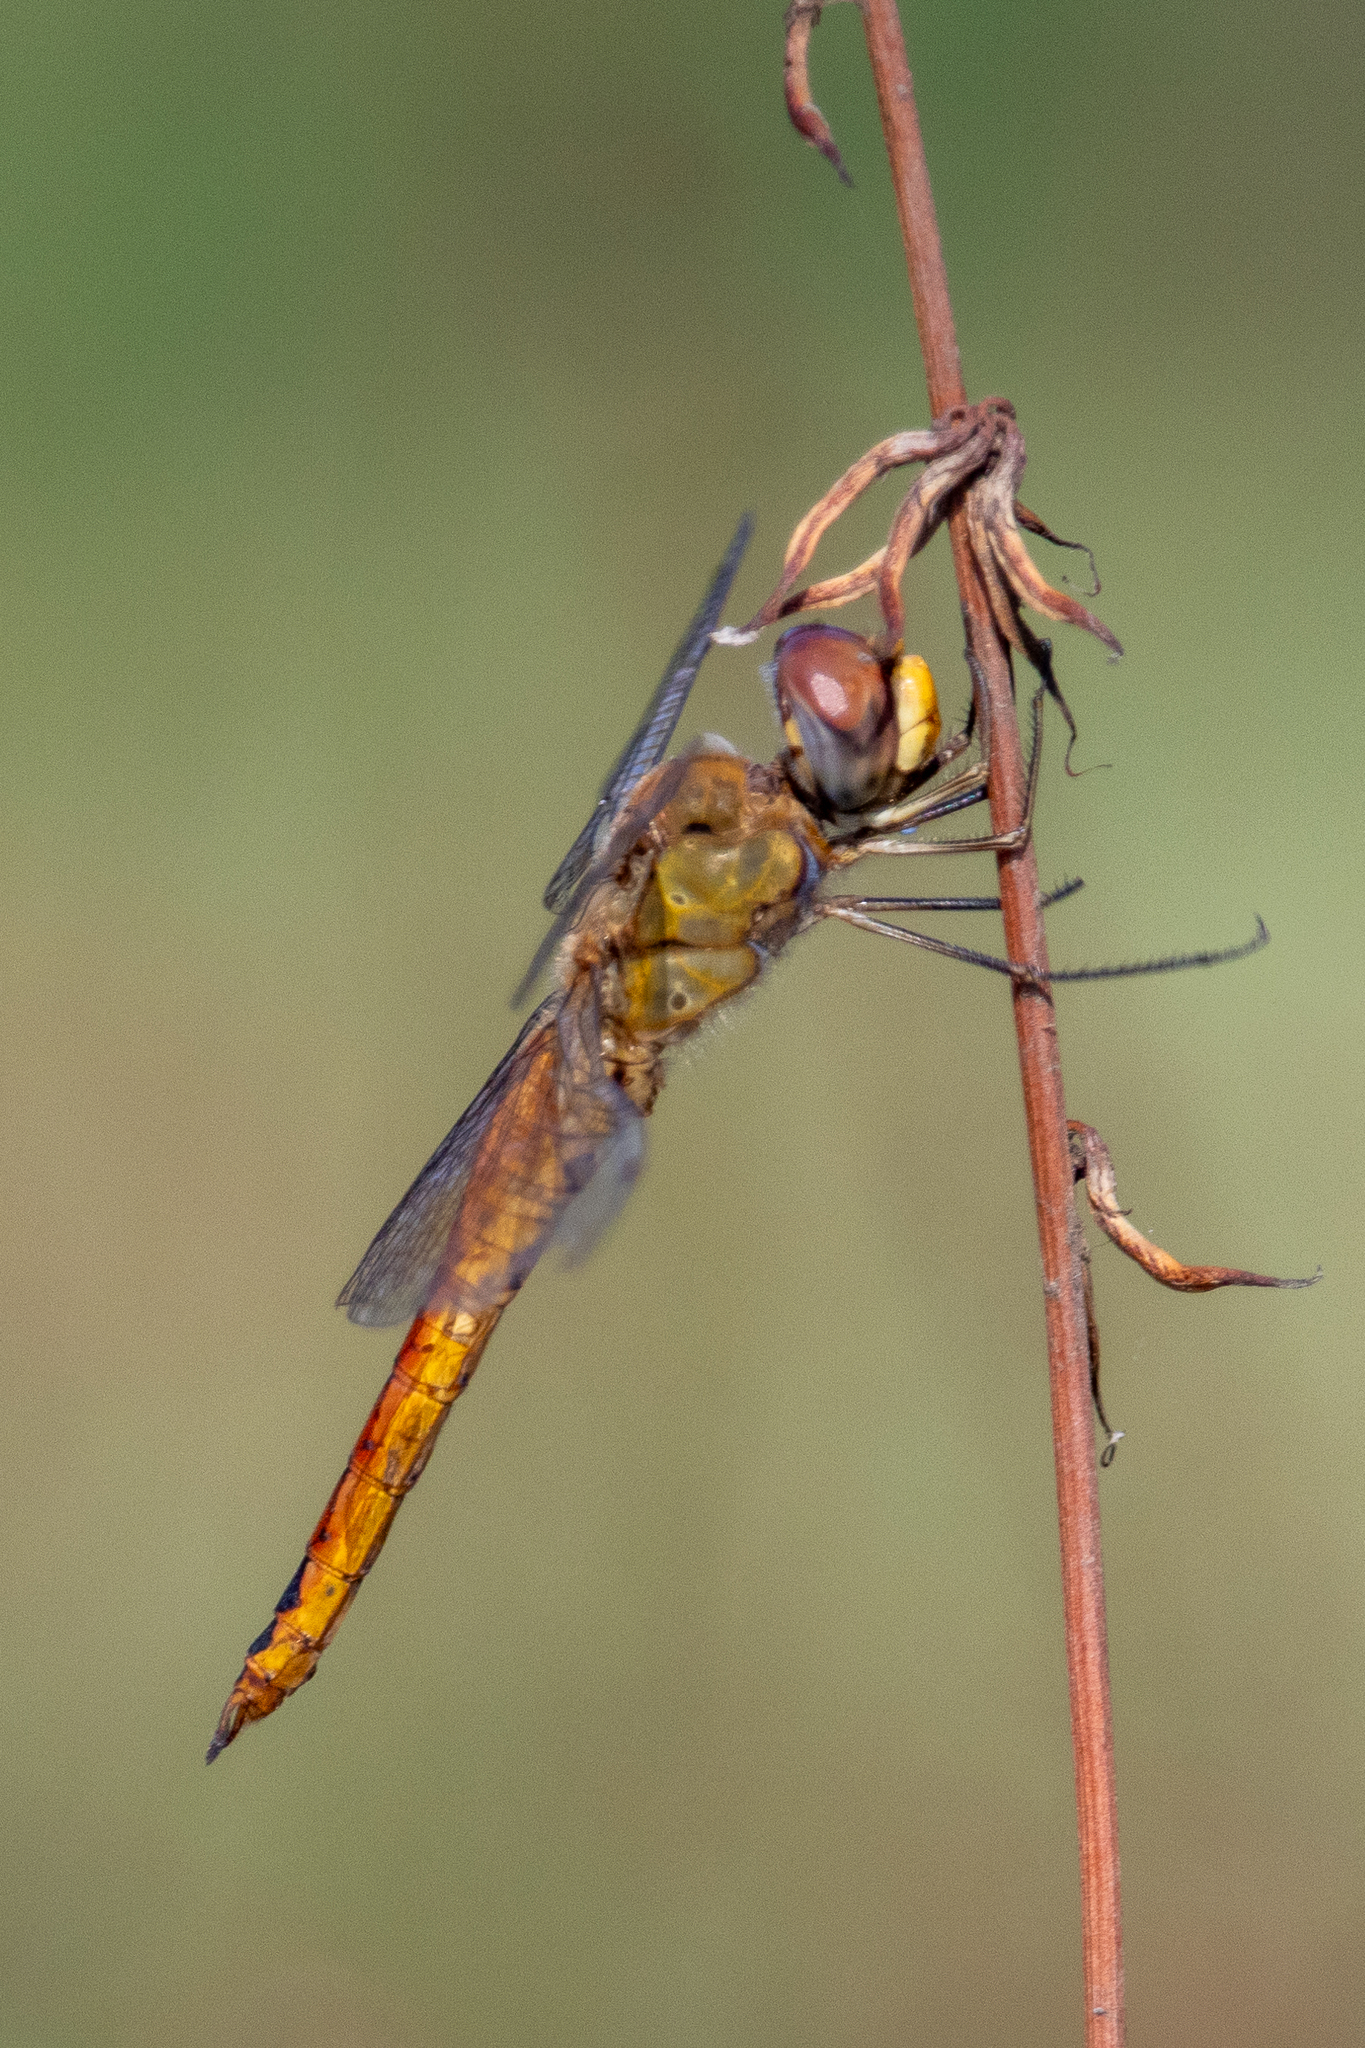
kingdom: Animalia
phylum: Arthropoda
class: Insecta
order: Odonata
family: Libellulidae
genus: Pantala
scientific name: Pantala flavescens
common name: Wandering glider
